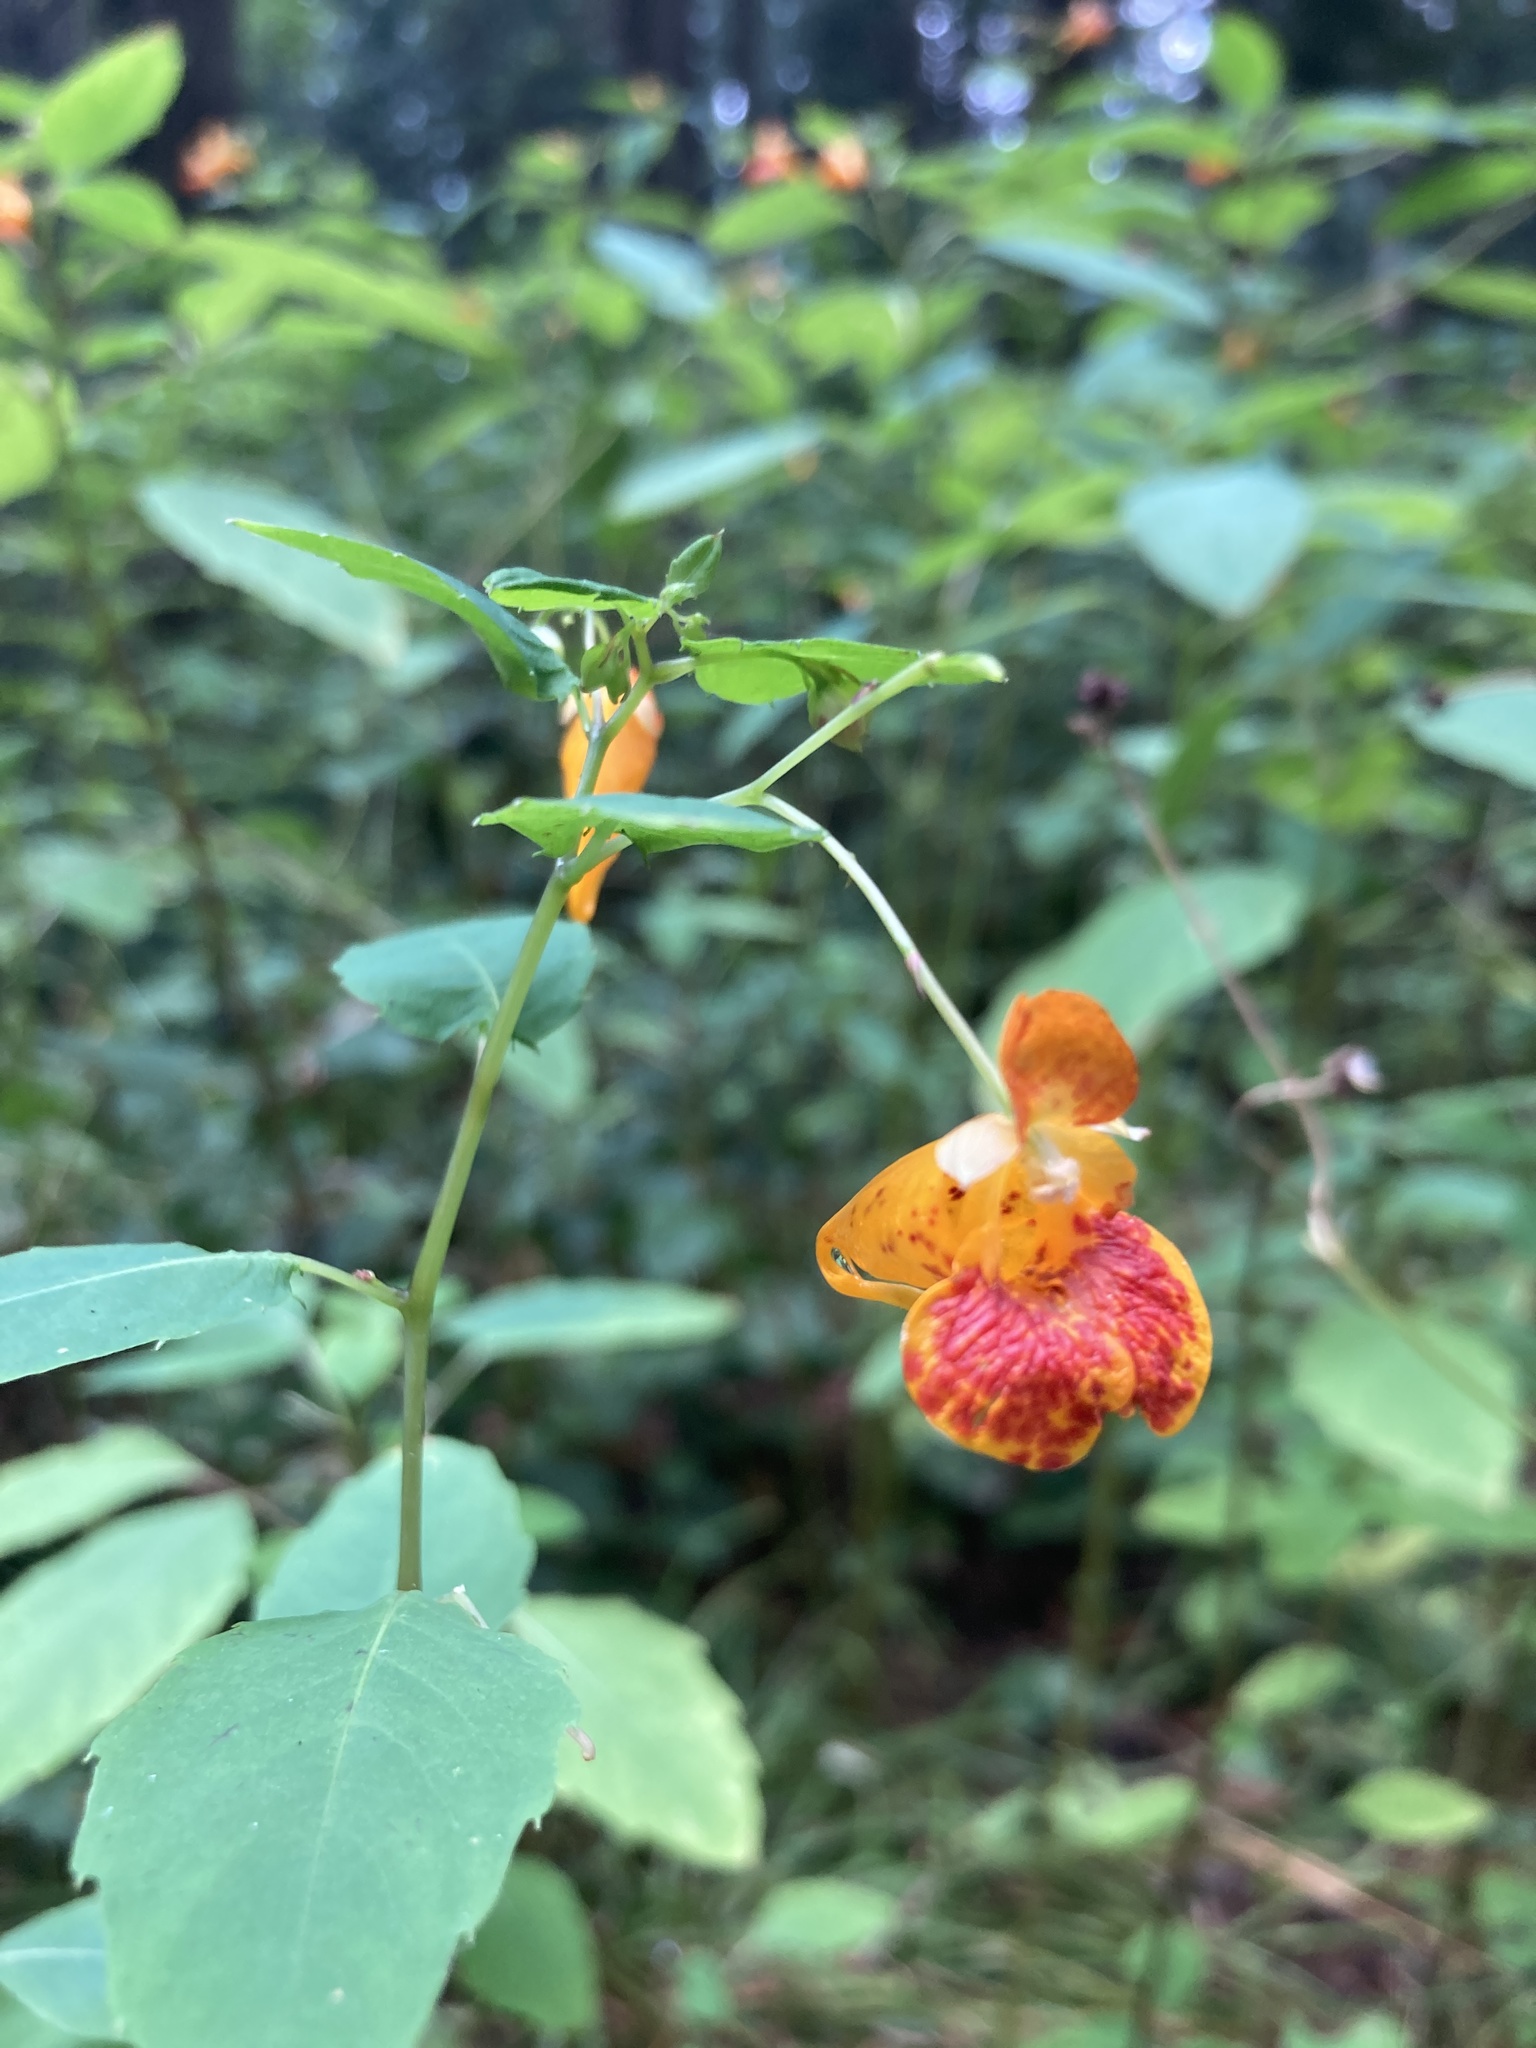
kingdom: Plantae
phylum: Tracheophyta
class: Magnoliopsida
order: Ericales
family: Balsaminaceae
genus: Impatiens
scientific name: Impatiens capensis
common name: Orange balsam
